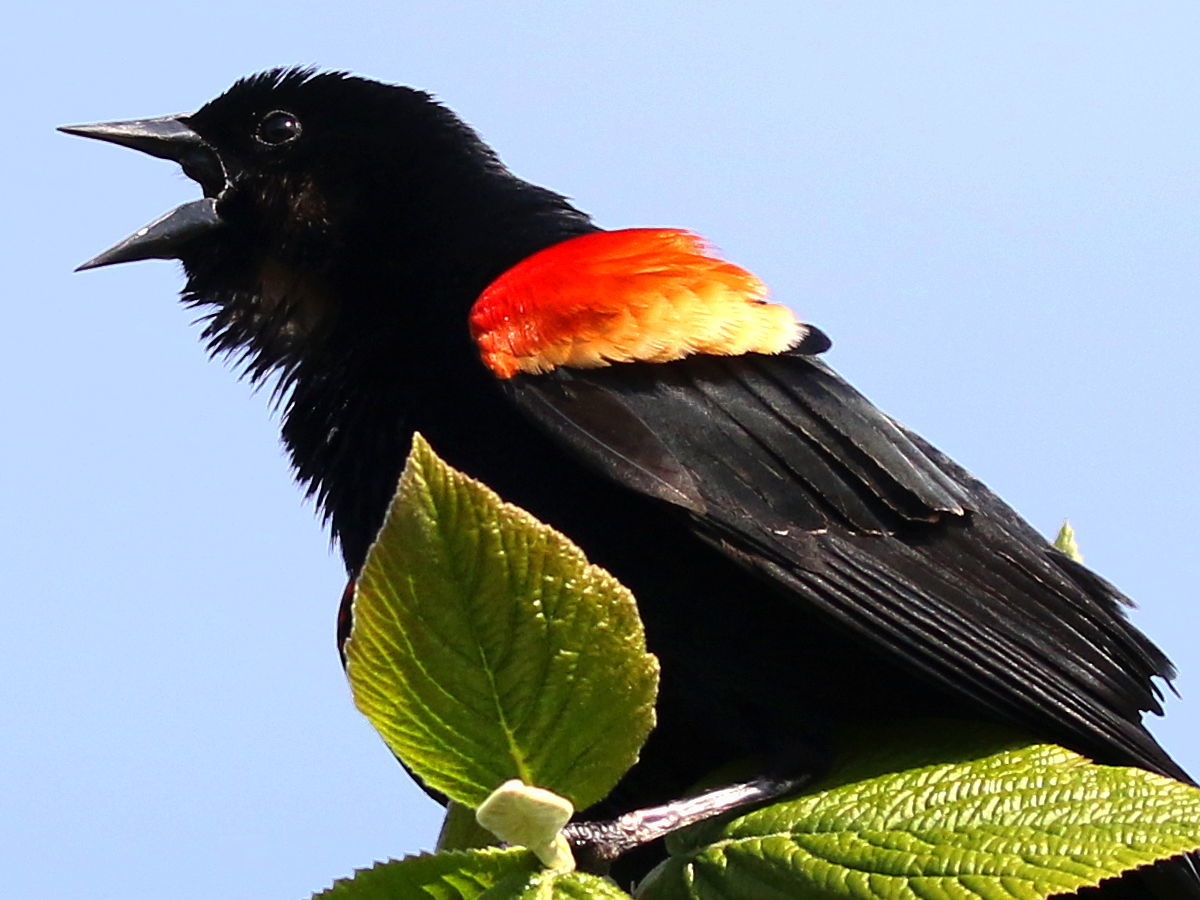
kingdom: Animalia
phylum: Chordata
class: Aves
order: Passeriformes
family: Icteridae
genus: Agelaius
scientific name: Agelaius phoeniceus
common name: Red-winged blackbird
